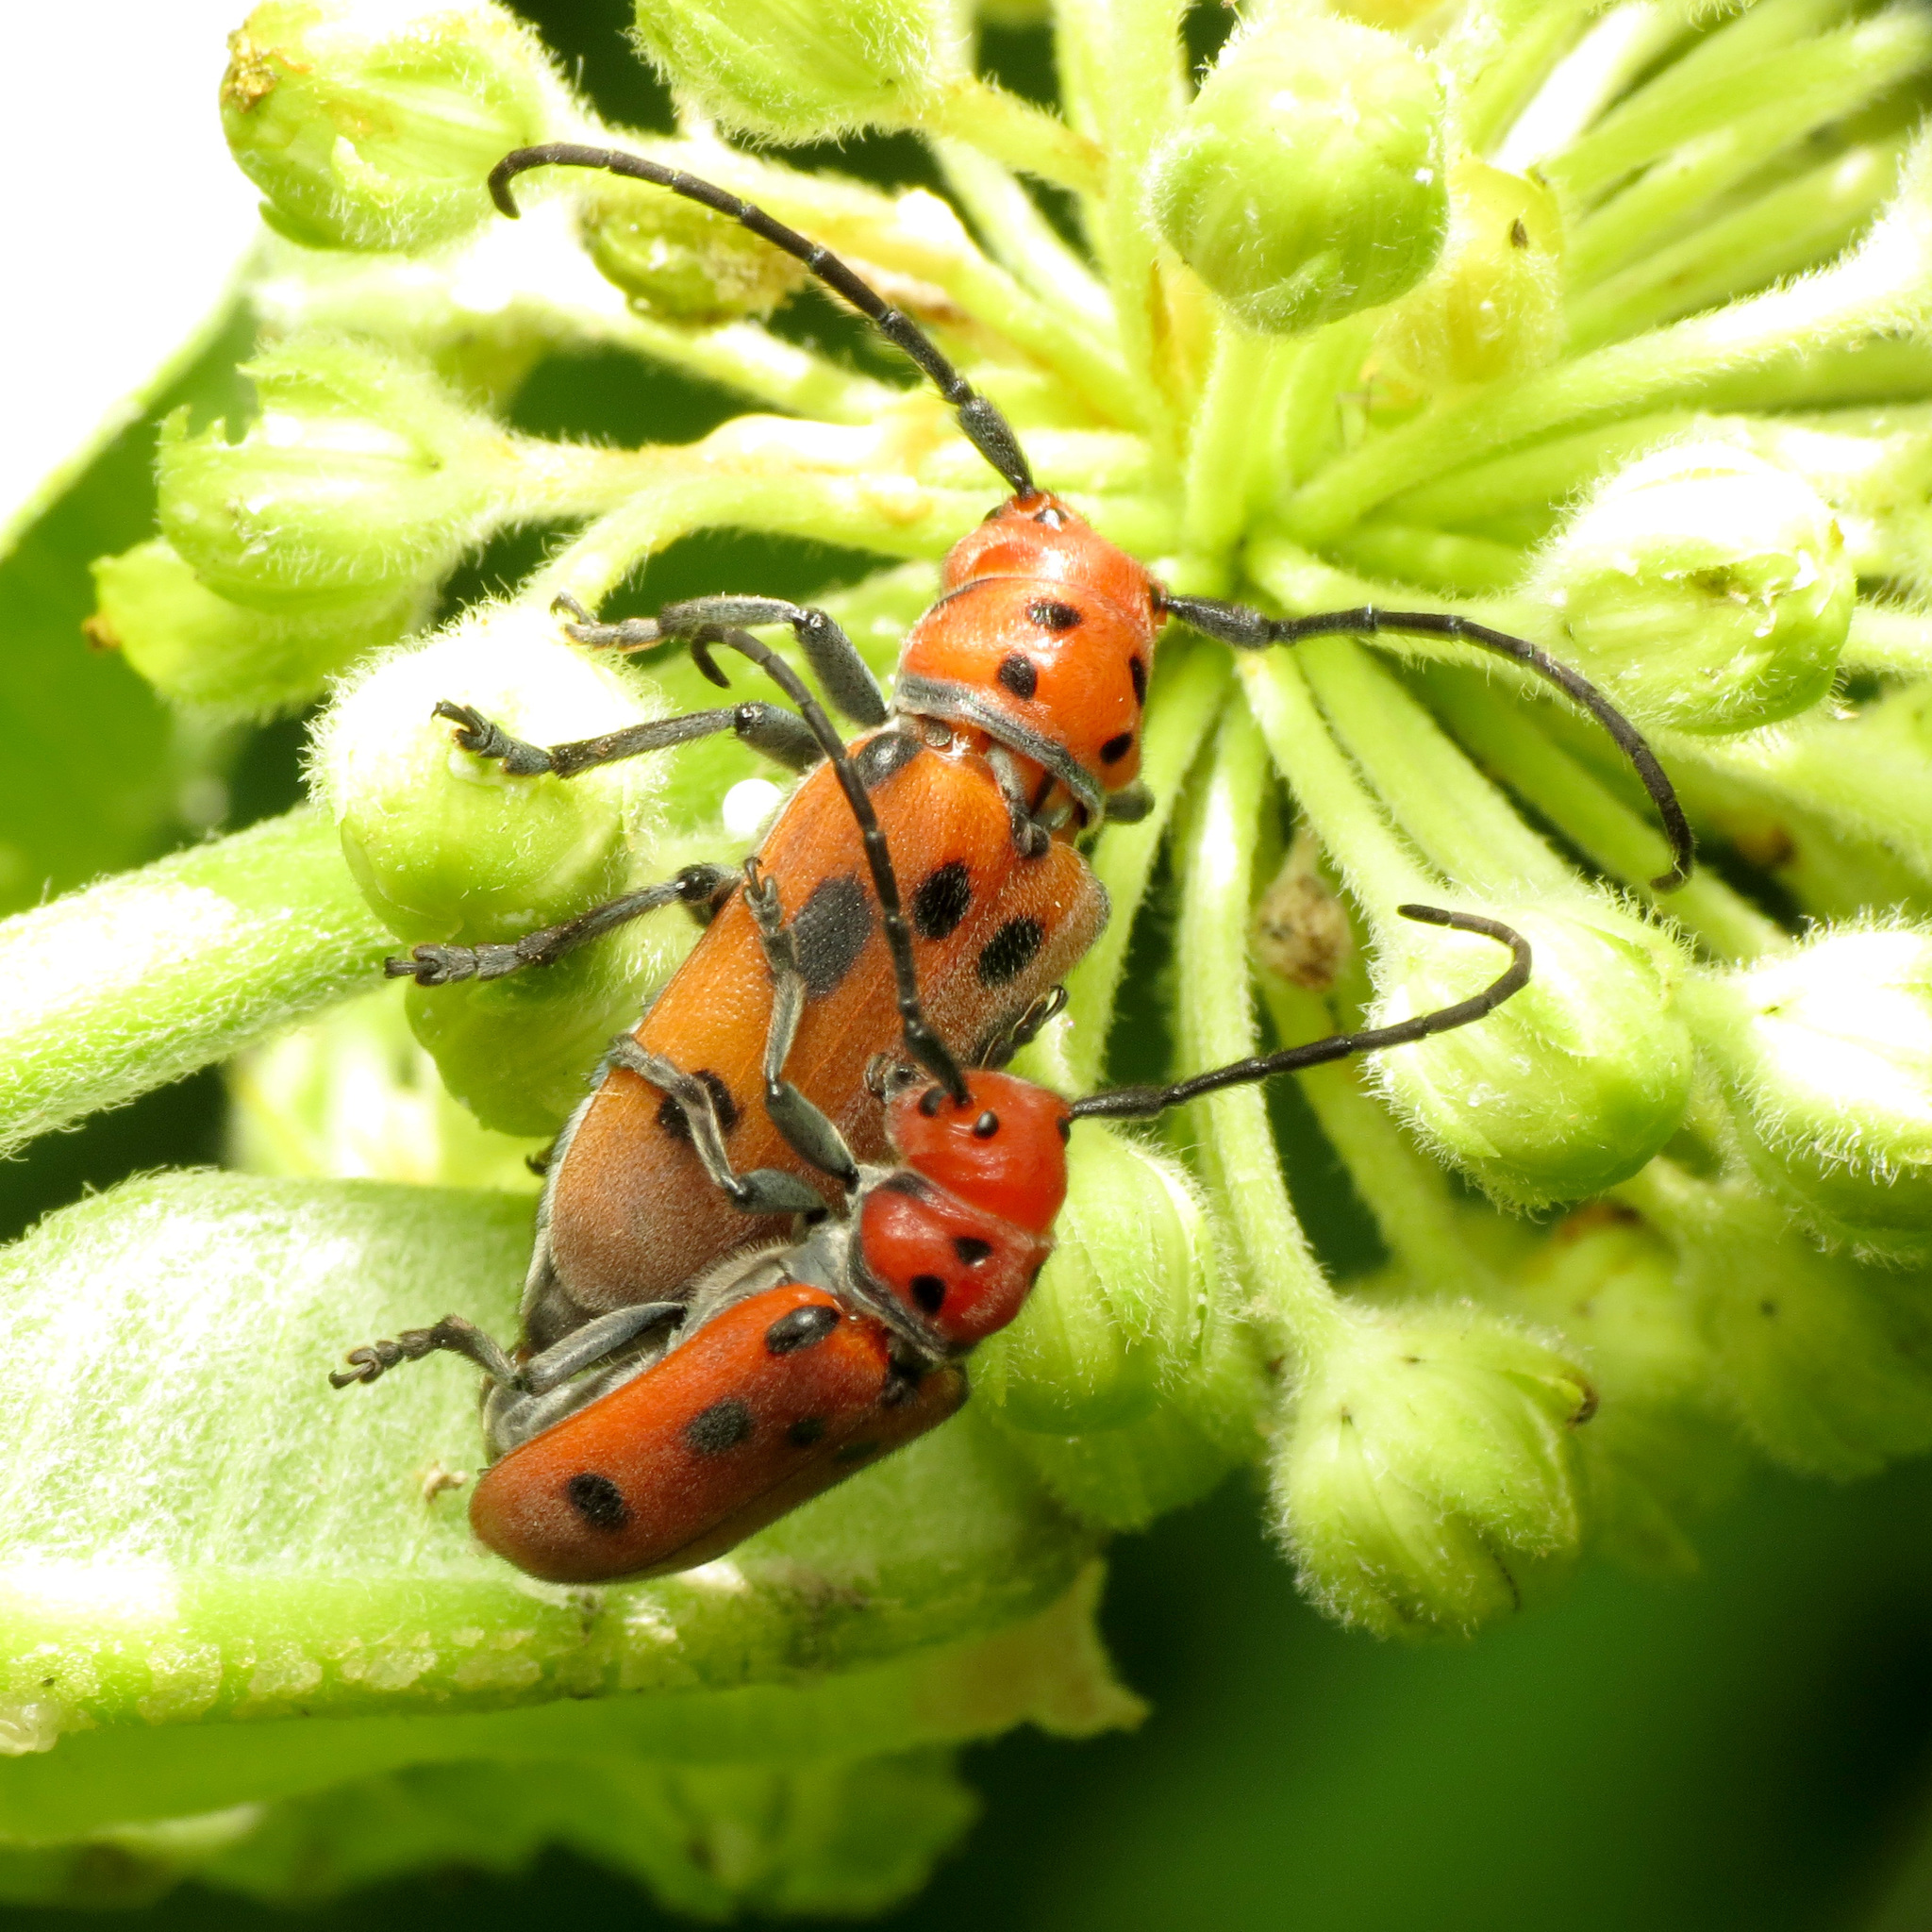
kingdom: Animalia
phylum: Arthropoda
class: Insecta
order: Coleoptera
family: Cerambycidae
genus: Tetraopes
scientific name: Tetraopes tetrophthalmus
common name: Red milkweed beetle
